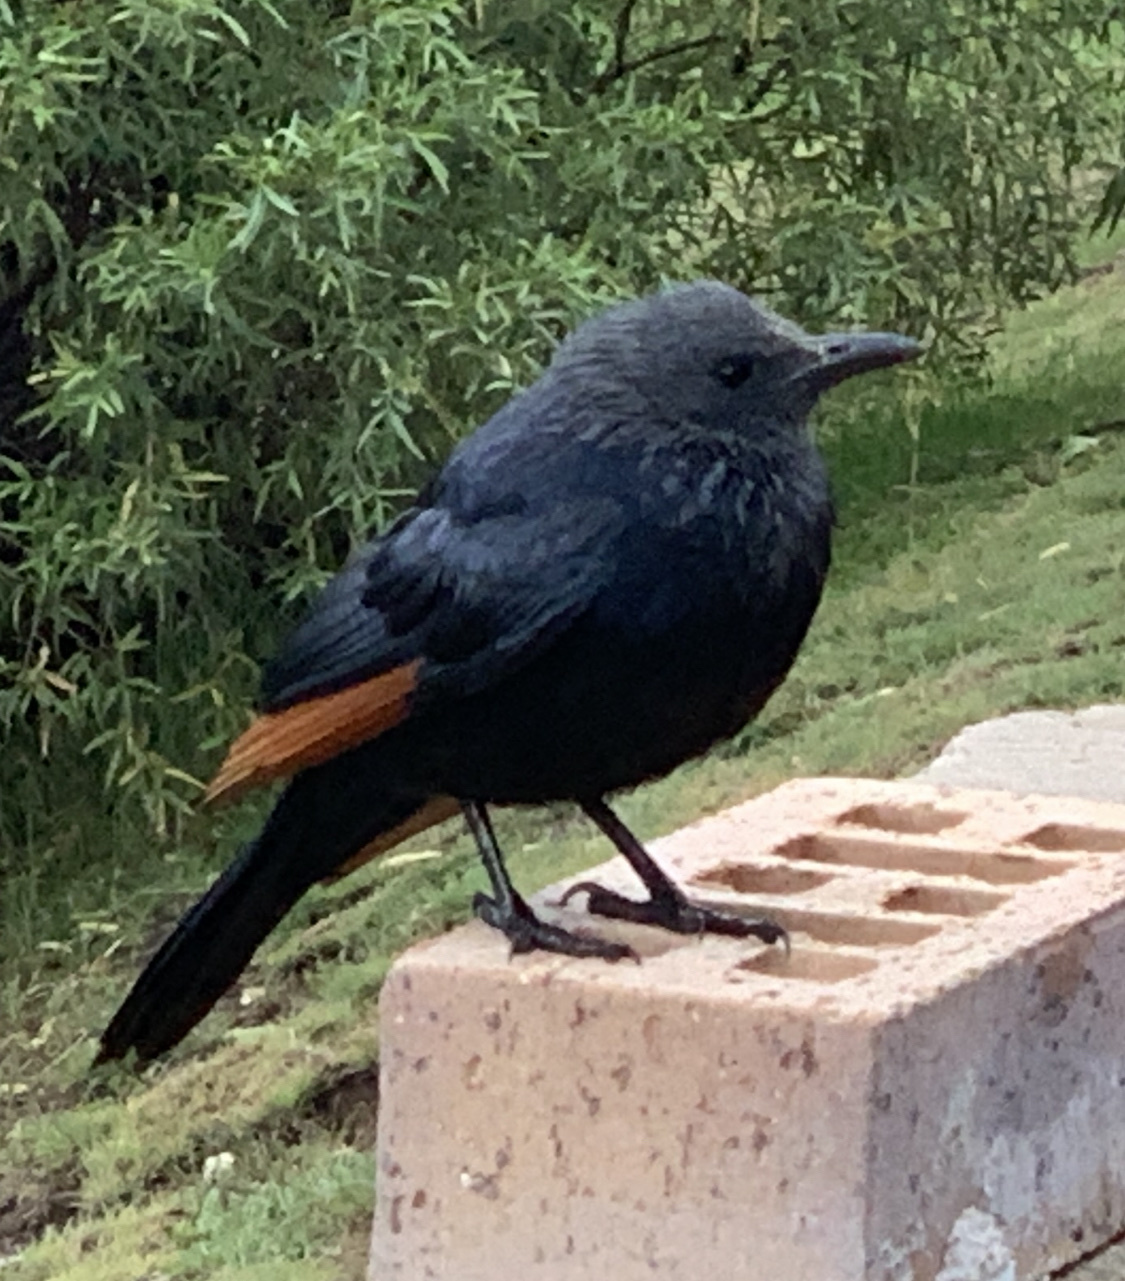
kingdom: Animalia
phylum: Chordata
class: Aves
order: Passeriformes
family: Sturnidae
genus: Onychognathus
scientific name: Onychognathus morio
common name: Red-winged starling
